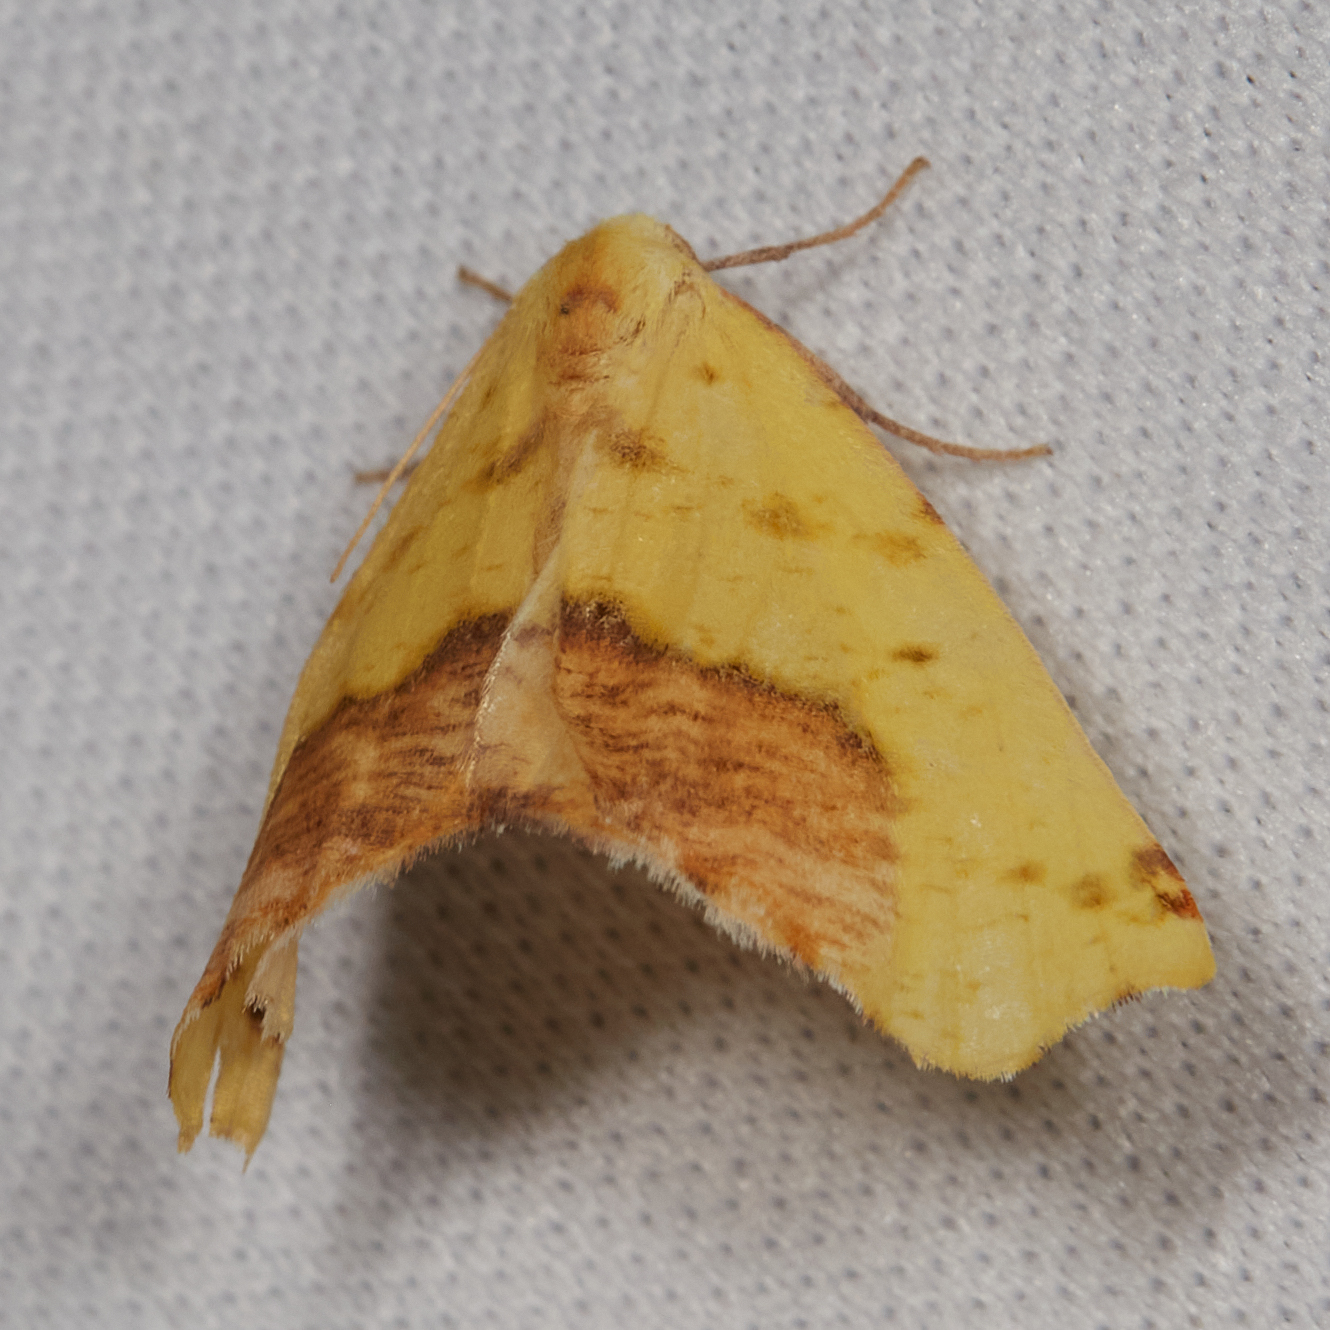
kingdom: Animalia
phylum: Arthropoda
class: Insecta
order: Lepidoptera
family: Geometridae
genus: Sicya
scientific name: Sicya macularia
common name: Sharp-lined yellow
